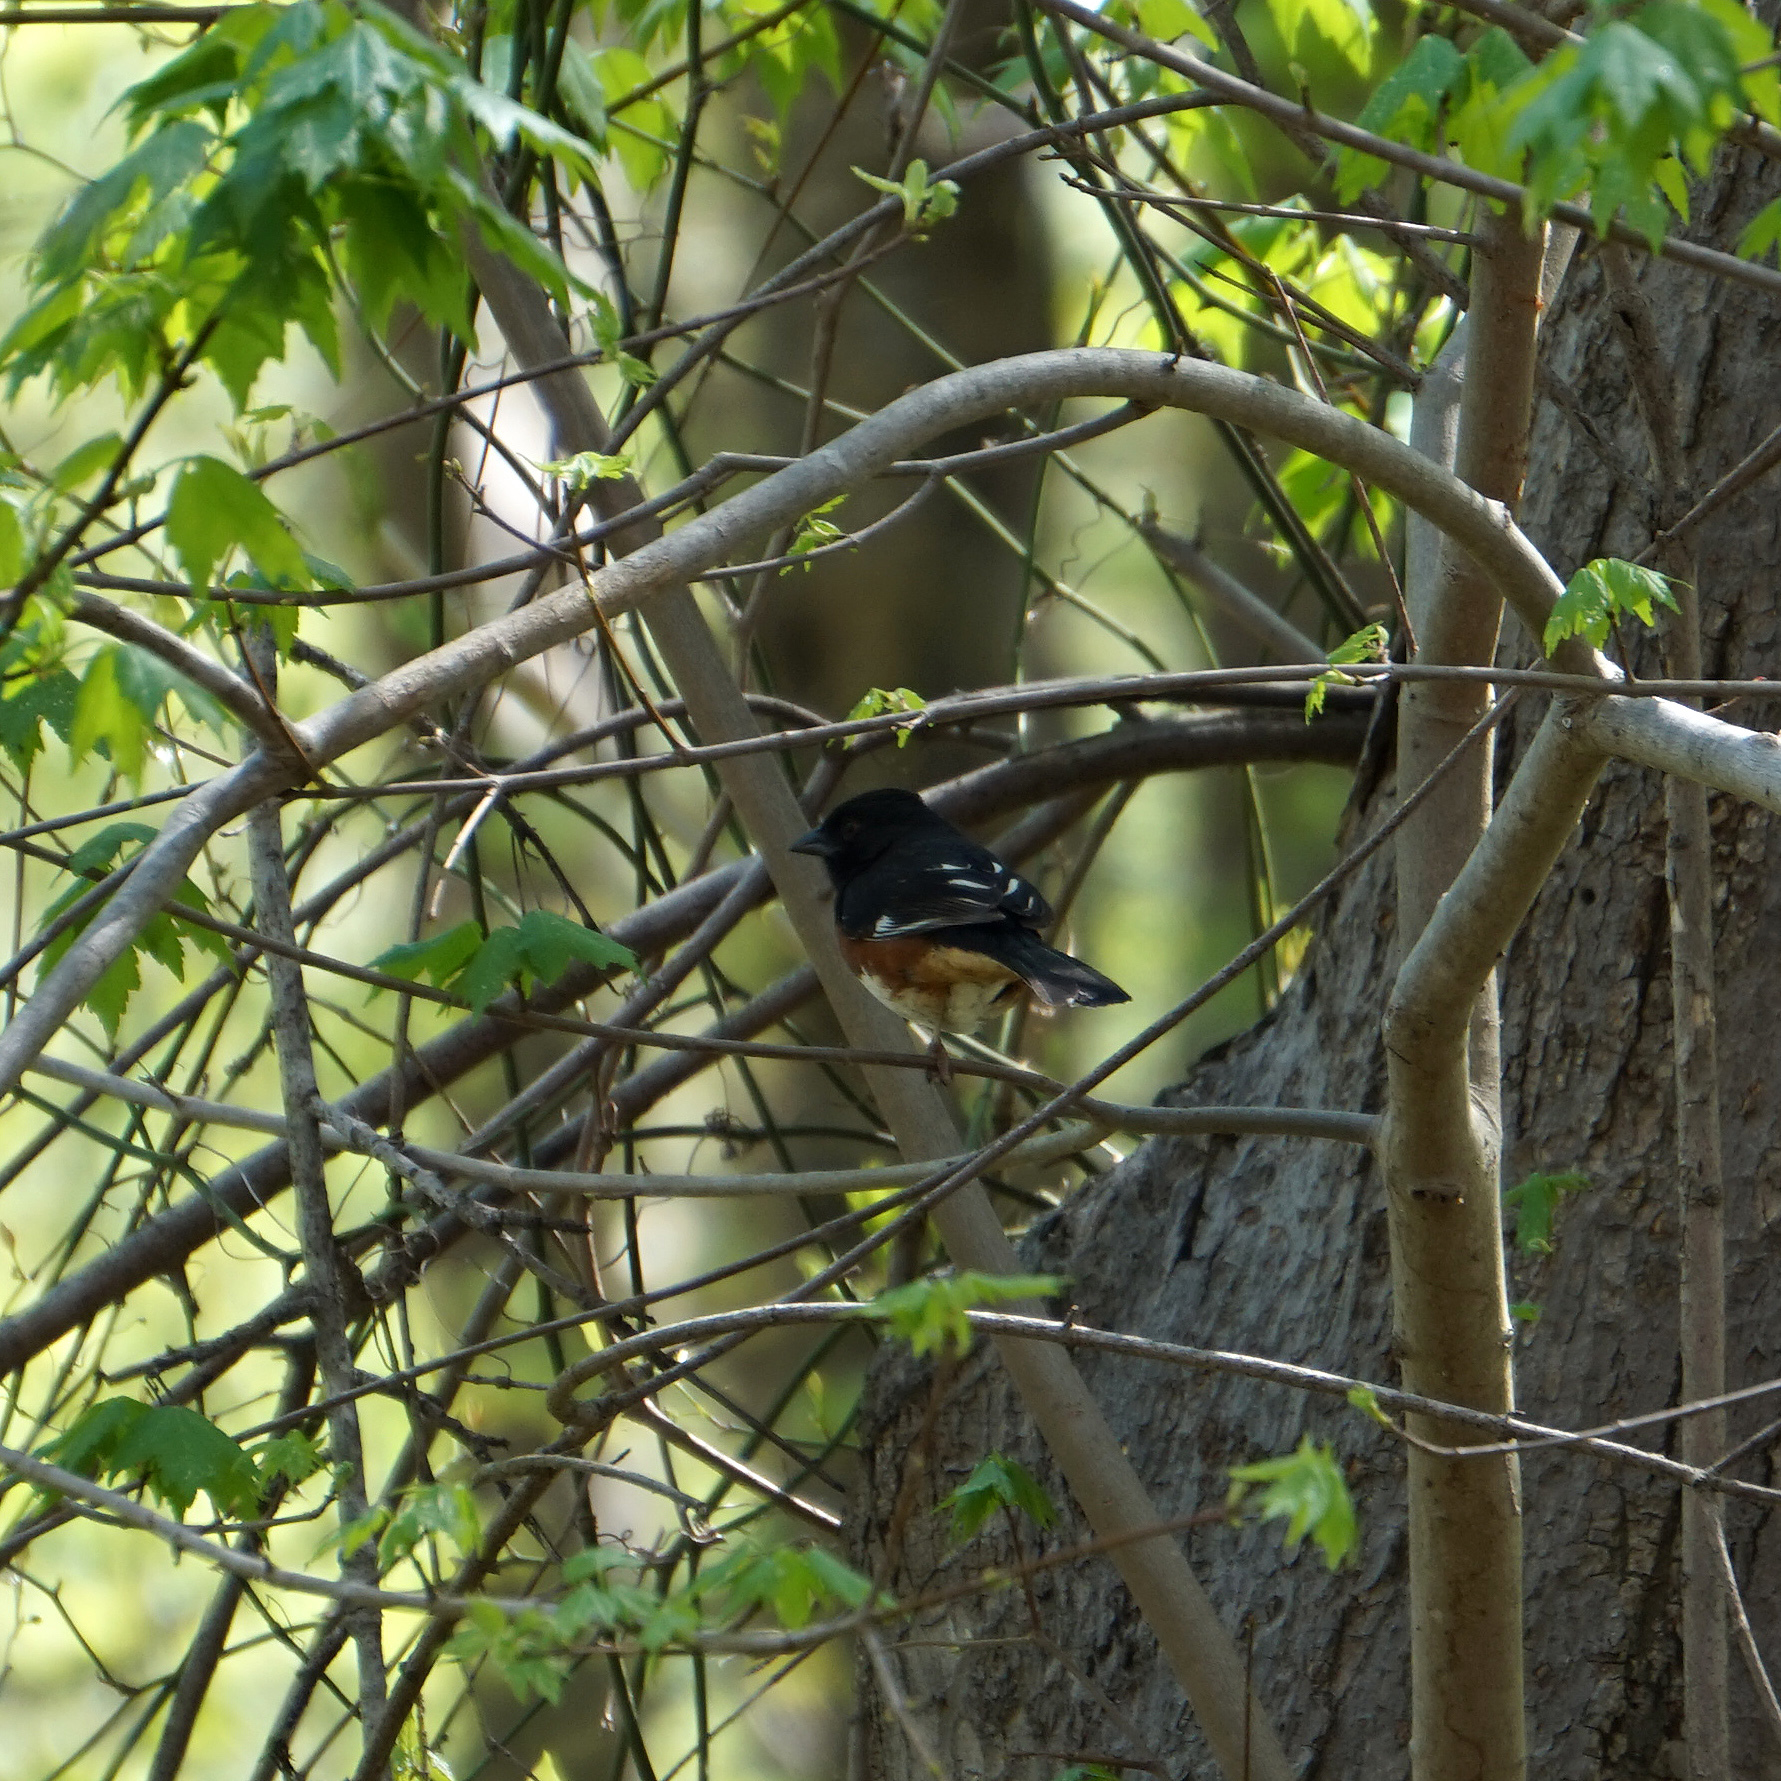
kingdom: Animalia
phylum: Chordata
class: Aves
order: Passeriformes
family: Passerellidae
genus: Pipilo
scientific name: Pipilo erythrophthalmus
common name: Eastern towhee
